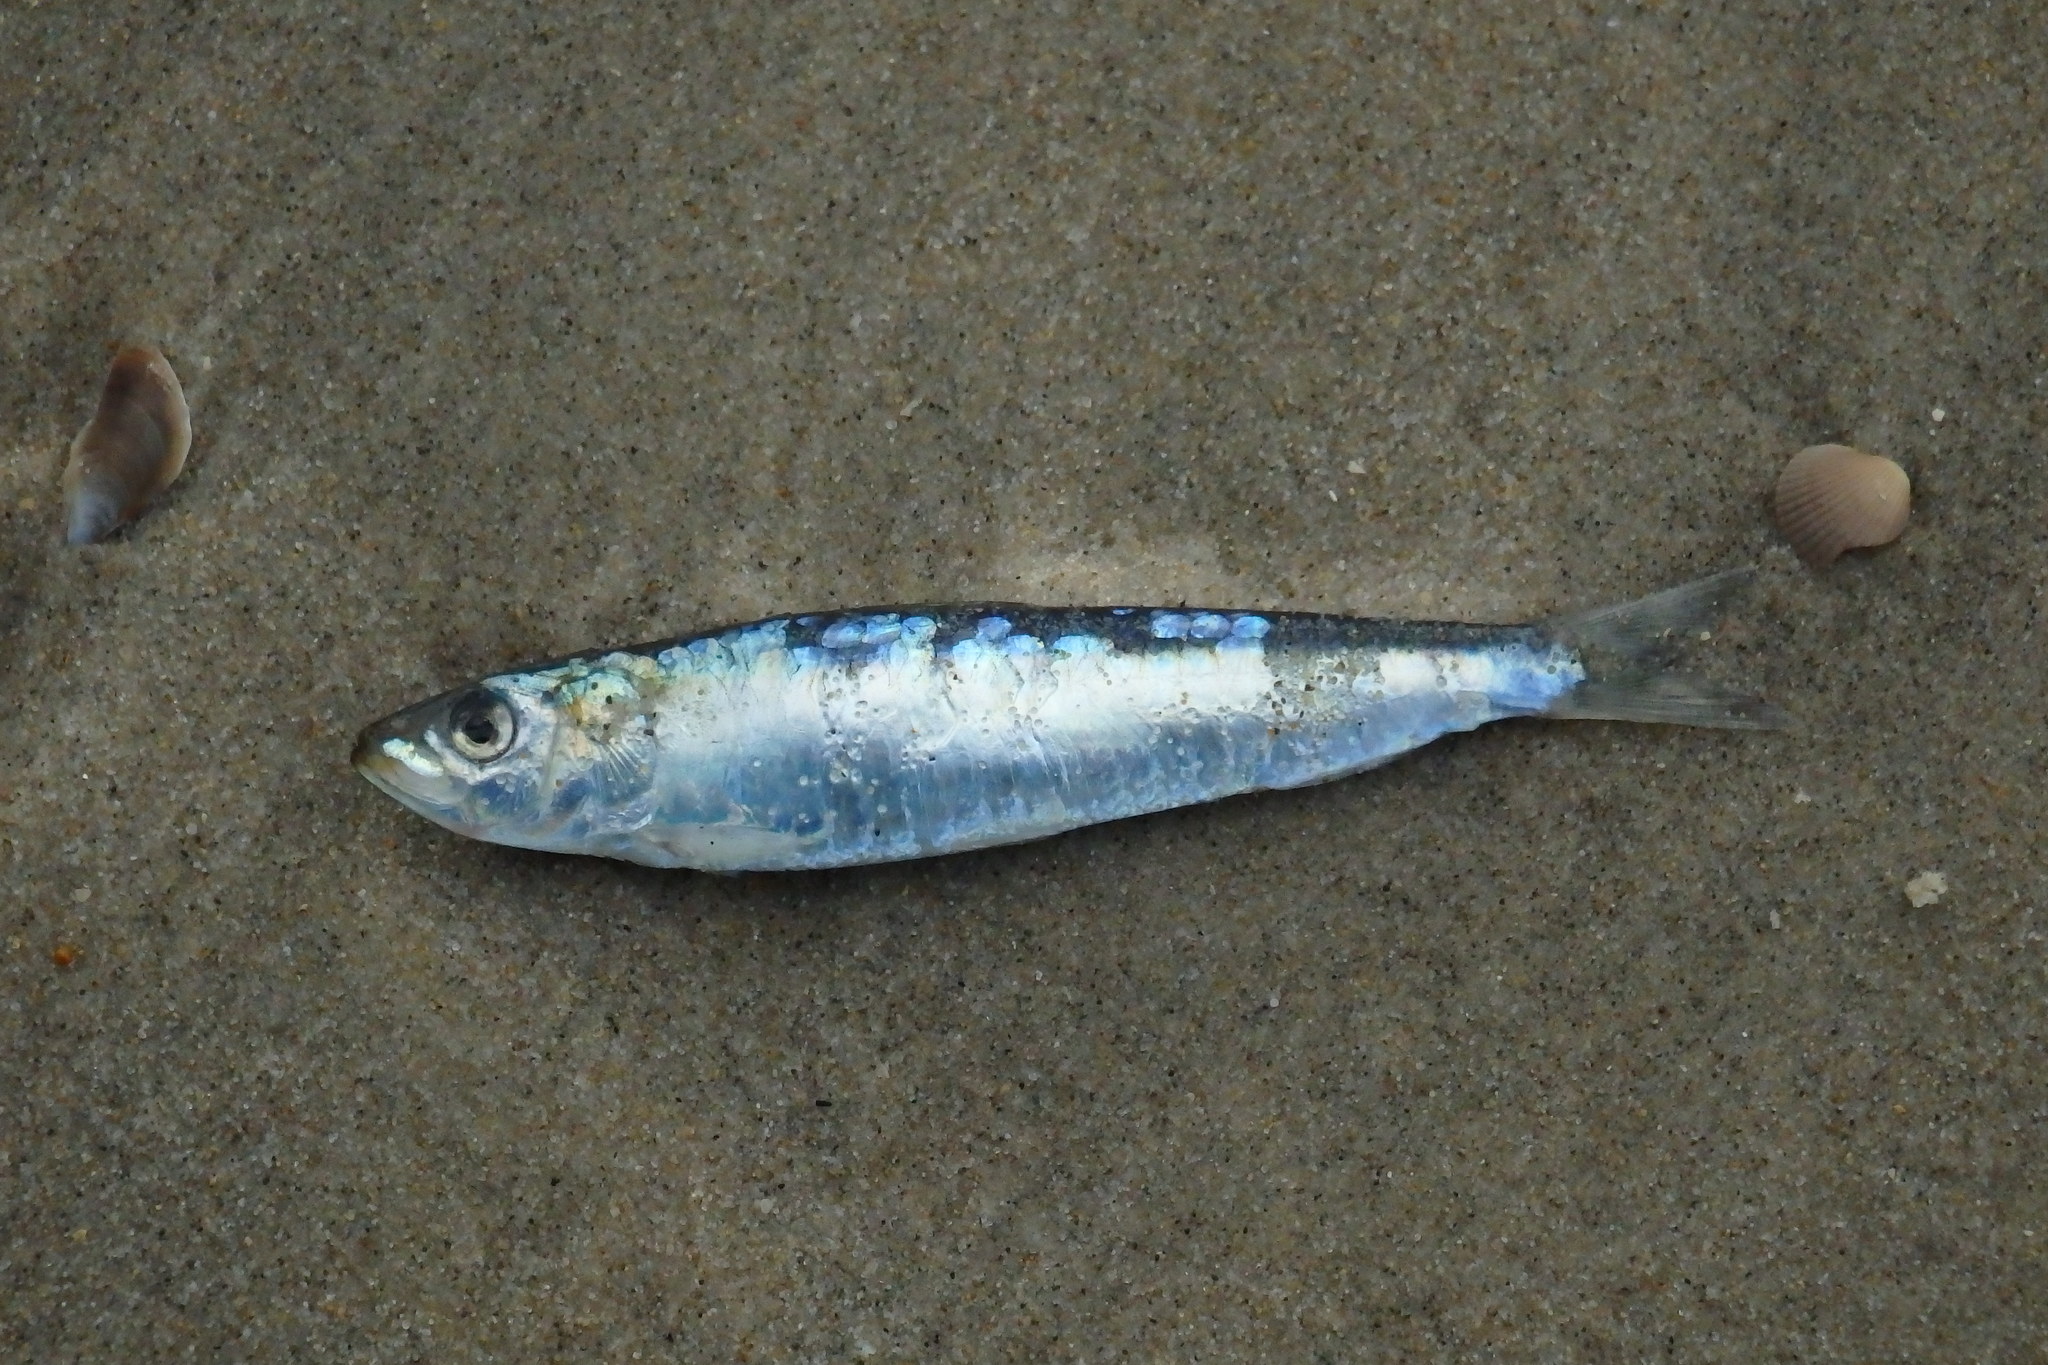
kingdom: Animalia
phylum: Chordata
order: Clupeiformes
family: Clupeidae
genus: Sardina
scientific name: Sardina pilchardus
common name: Pilchard
